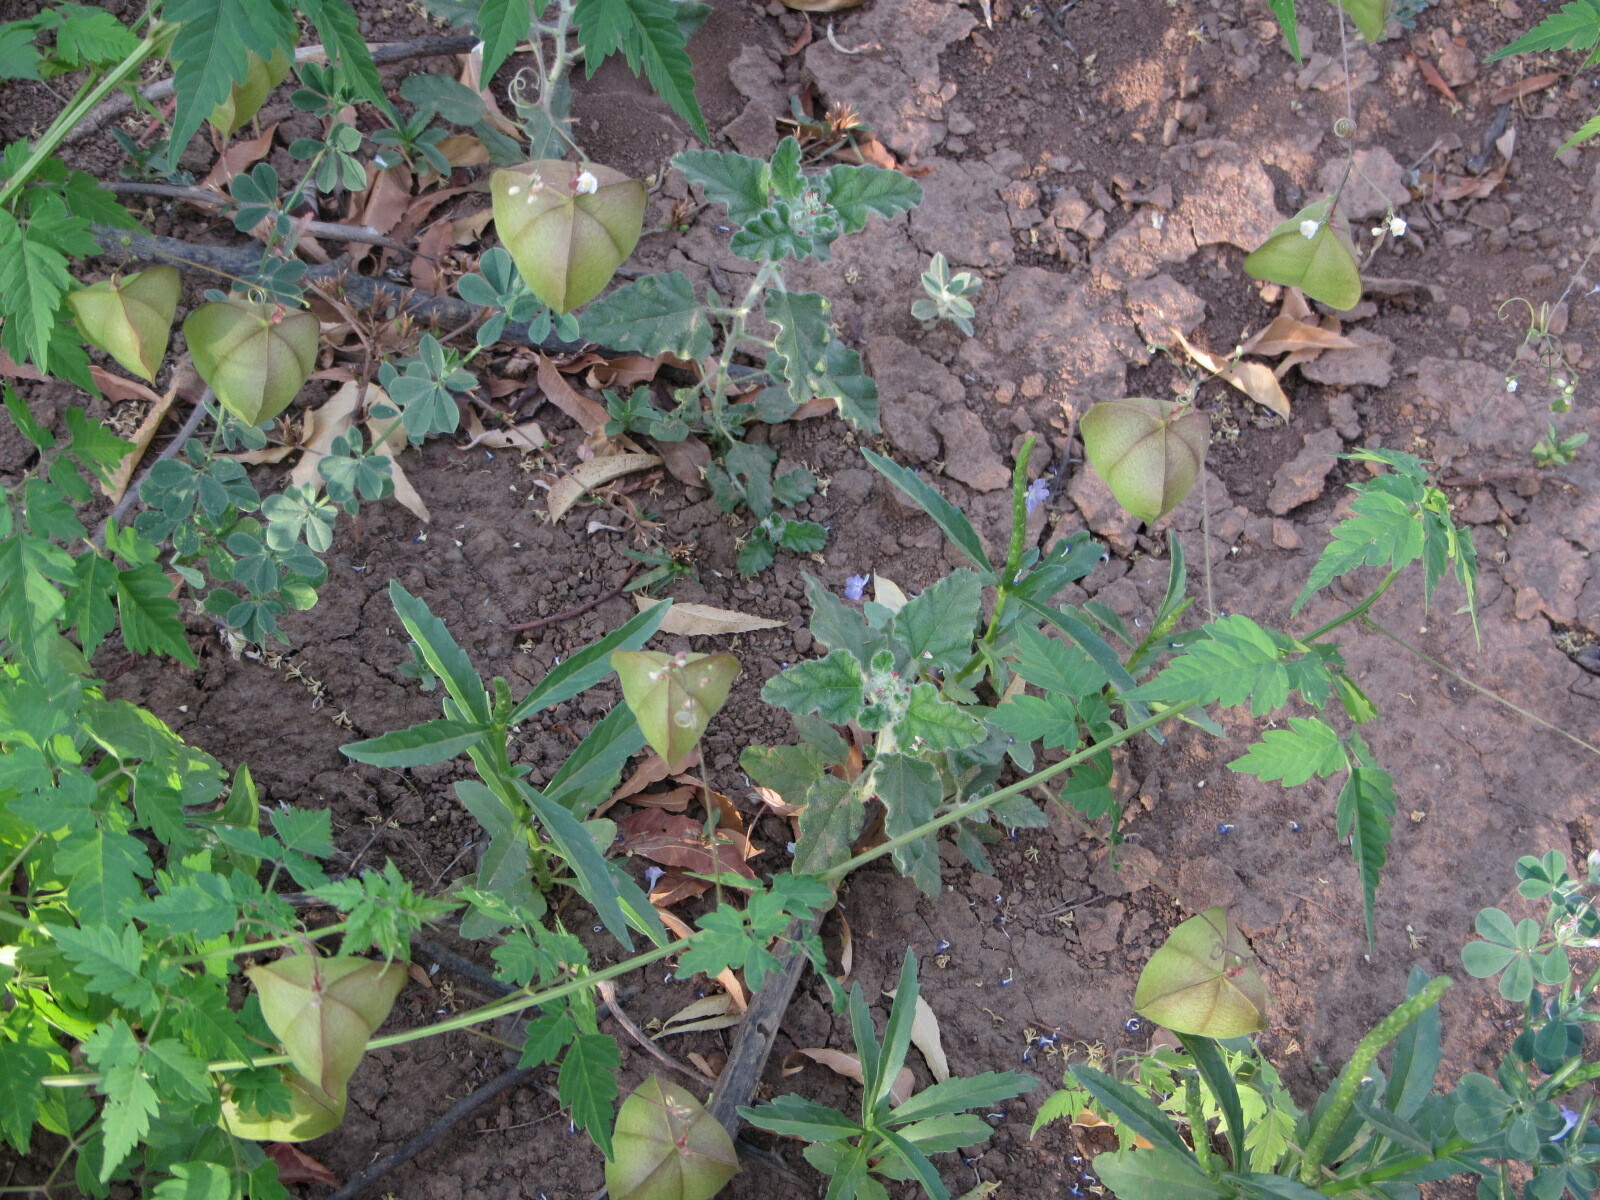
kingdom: Plantae
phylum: Tracheophyta
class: Magnoliopsida
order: Sapindales
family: Sapindaceae
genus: Cardiospermum
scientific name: Cardiospermum halicacabum
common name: Balloon vine
